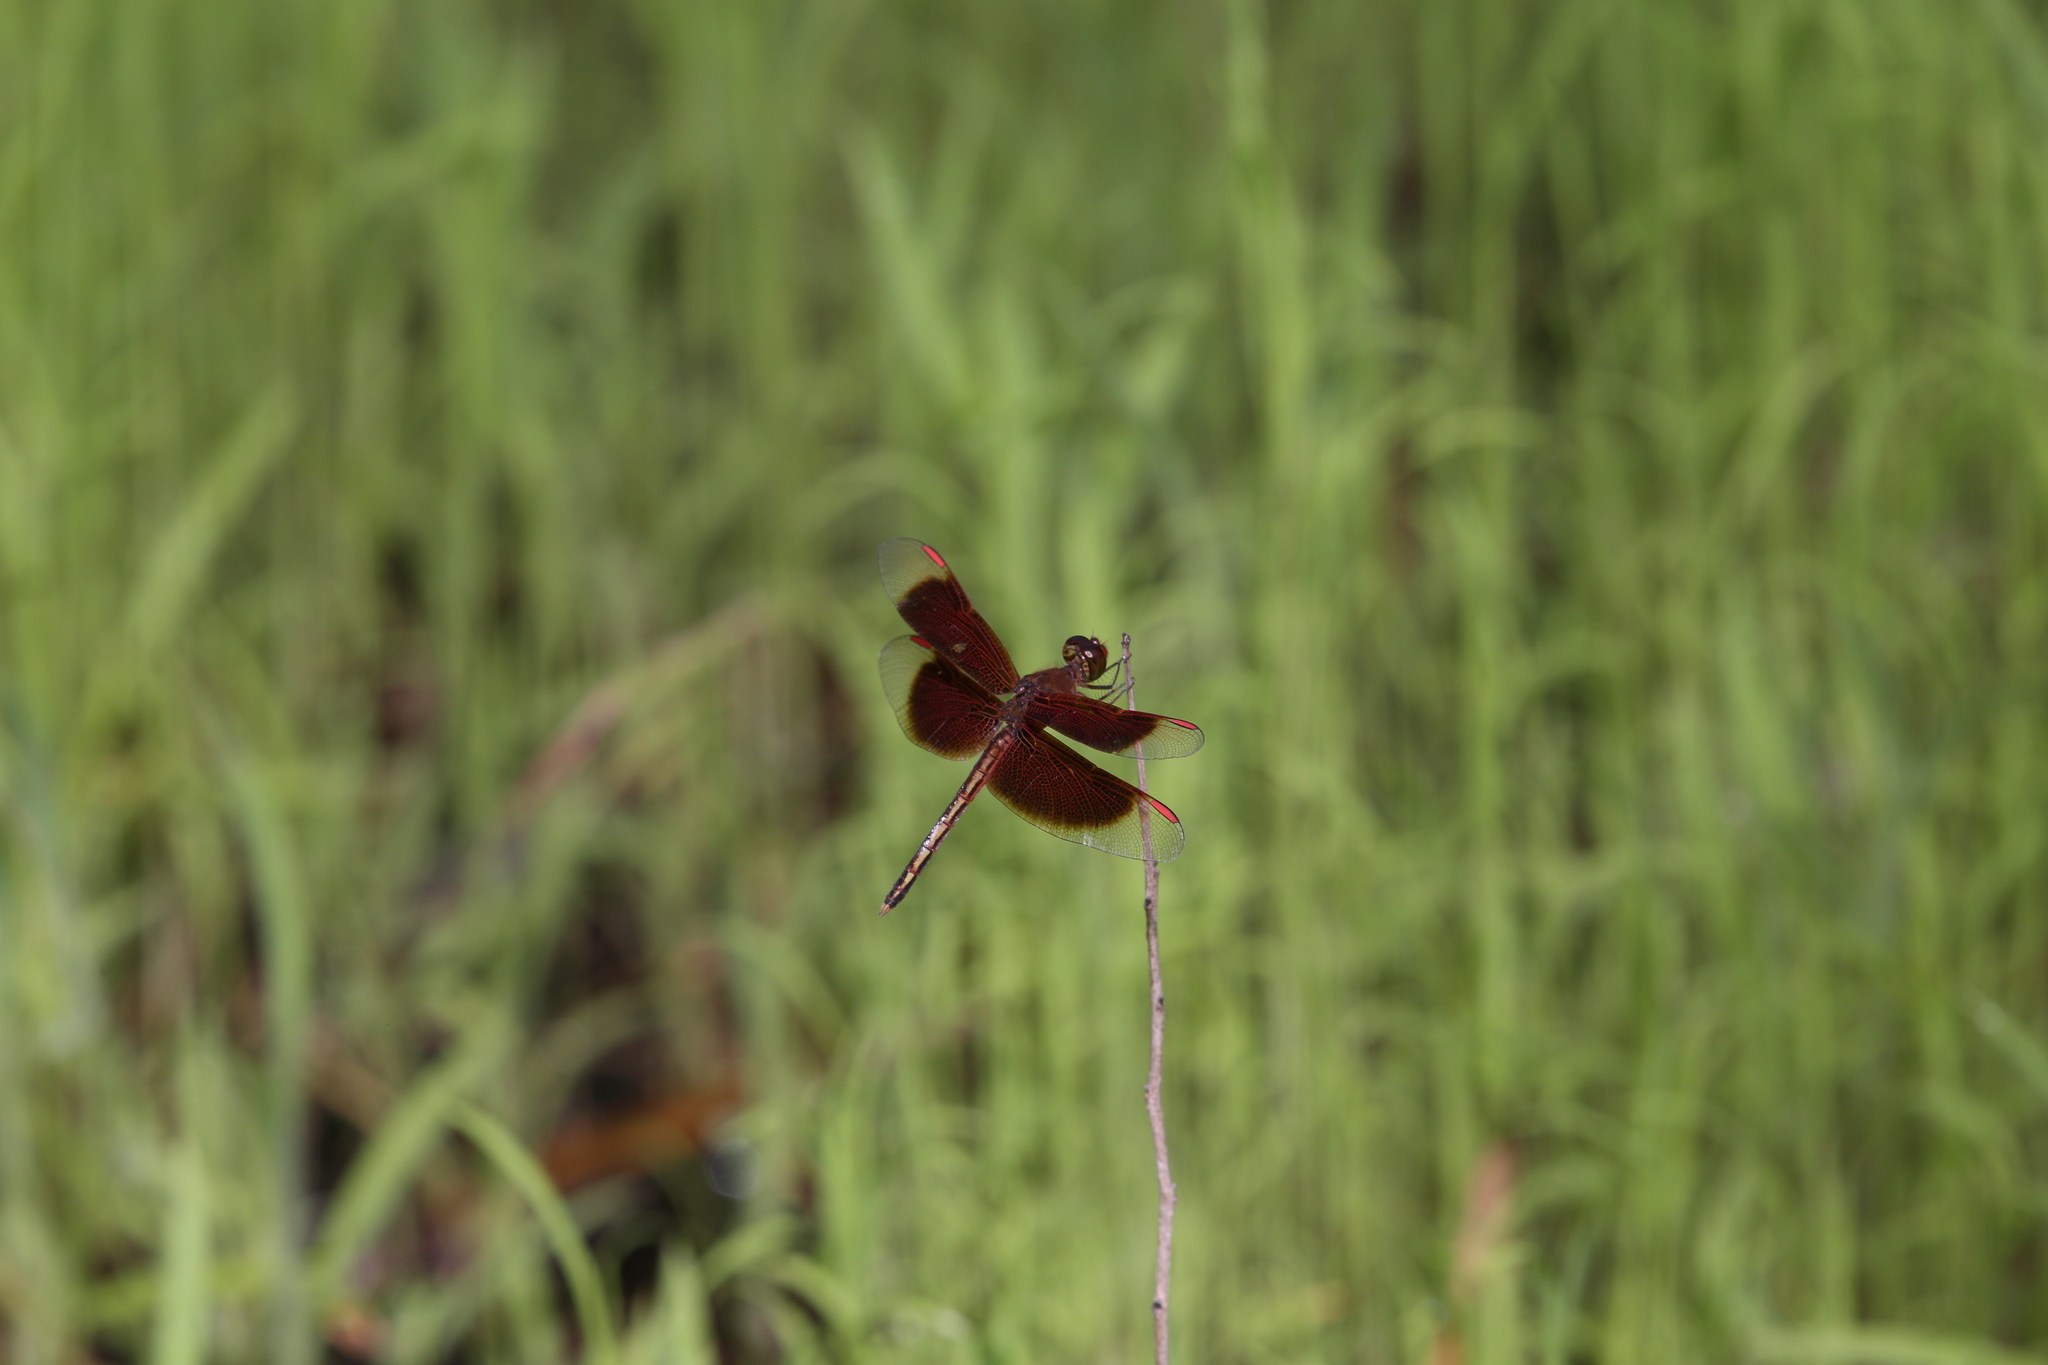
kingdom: Animalia
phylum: Arthropoda
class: Insecta
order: Odonata
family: Libellulidae
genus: Neurothemis
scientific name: Neurothemis stigmatizans
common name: Painted grasshawk
